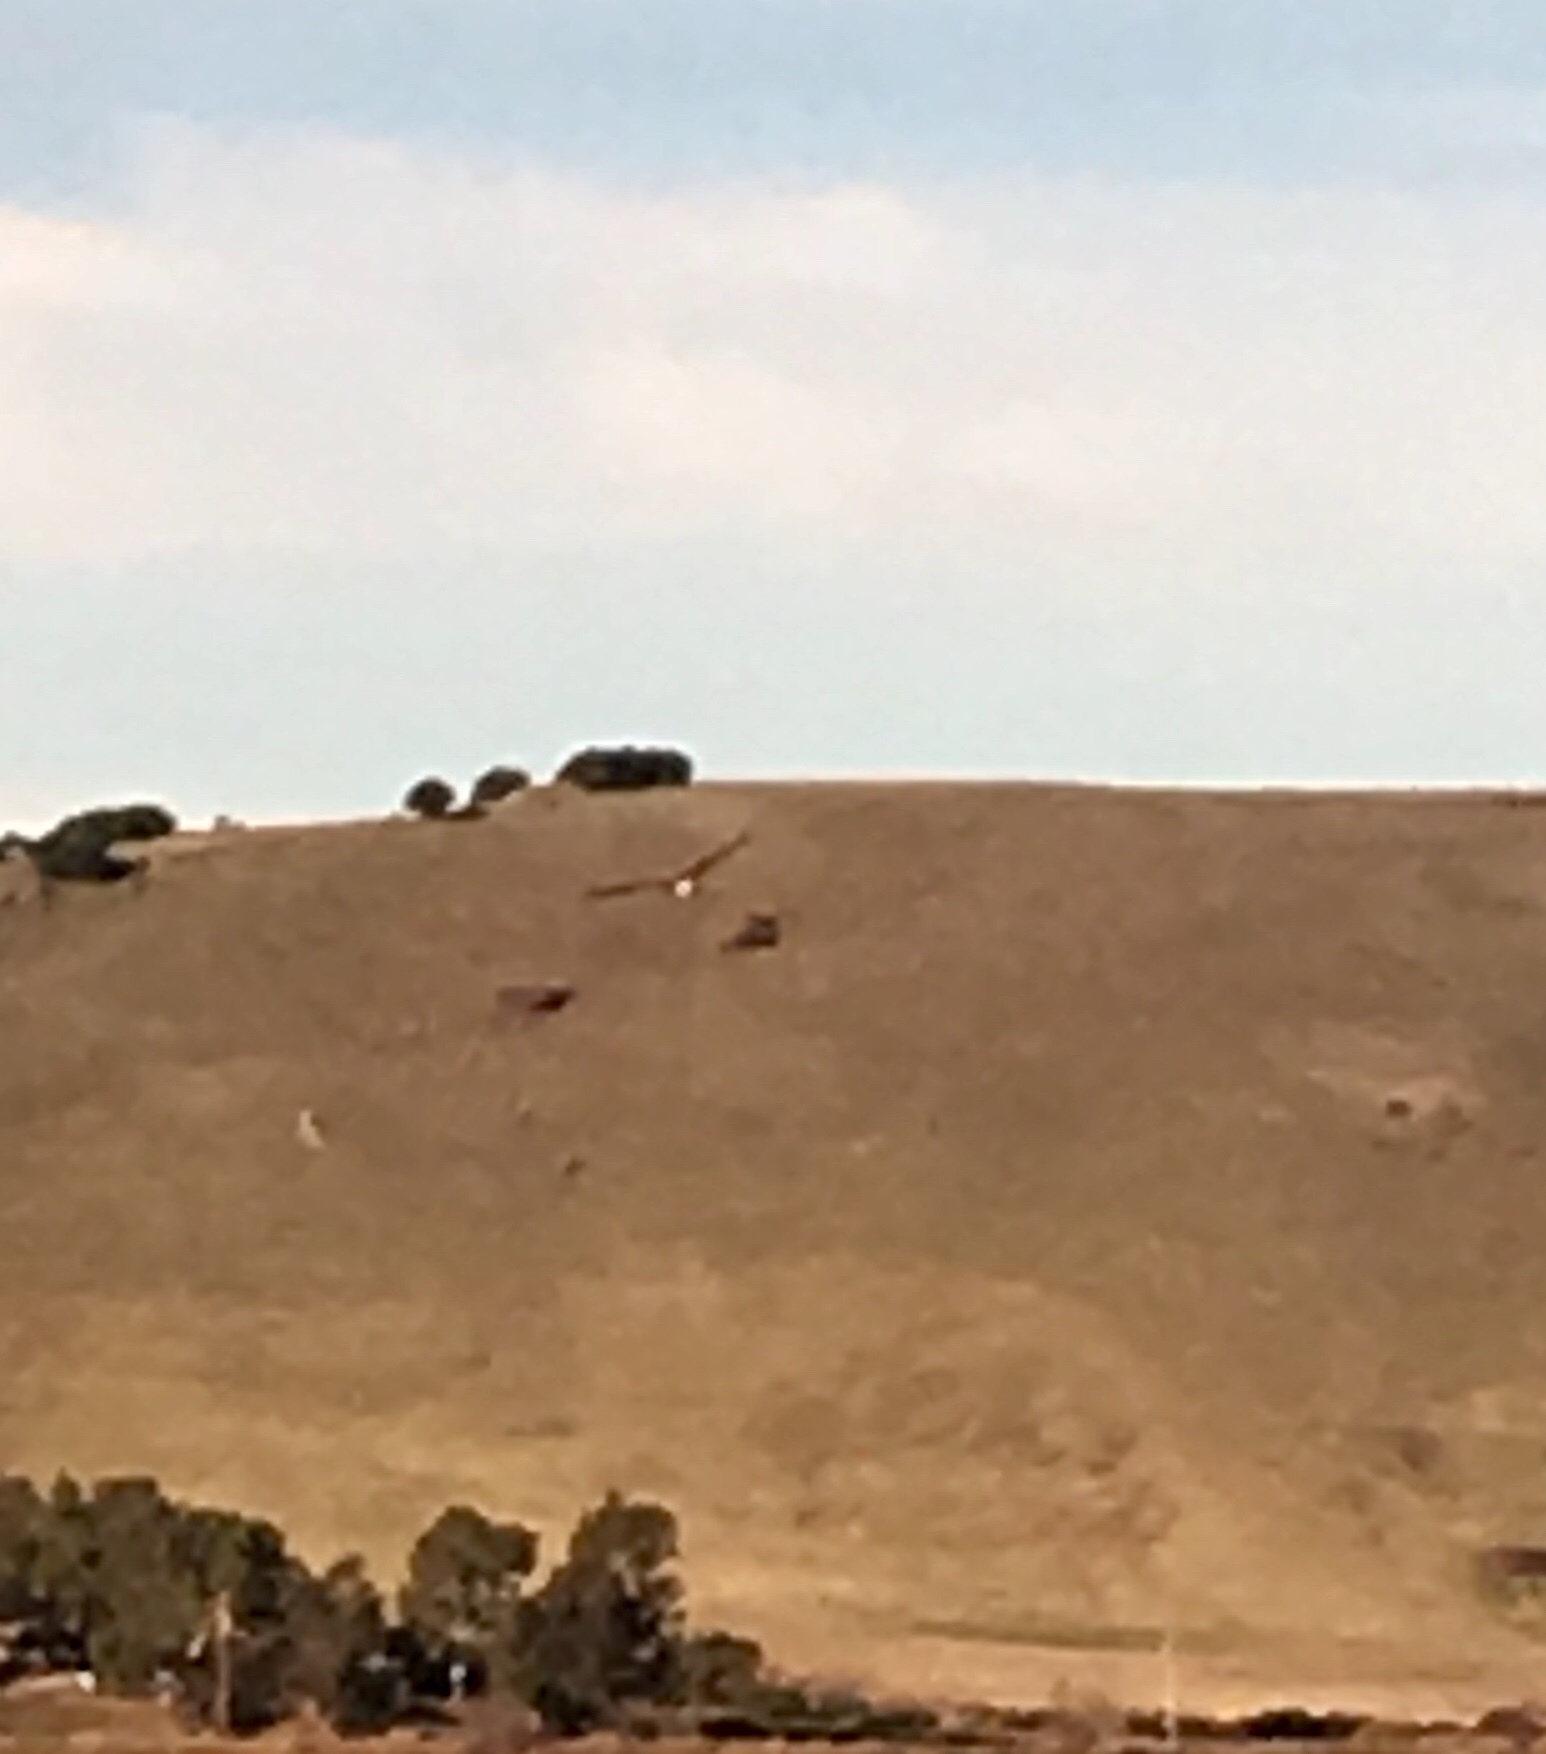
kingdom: Animalia
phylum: Chordata
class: Aves
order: Accipitriformes
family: Accipitridae
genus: Haliaeetus
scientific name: Haliaeetus leucocephalus
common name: Bald eagle
